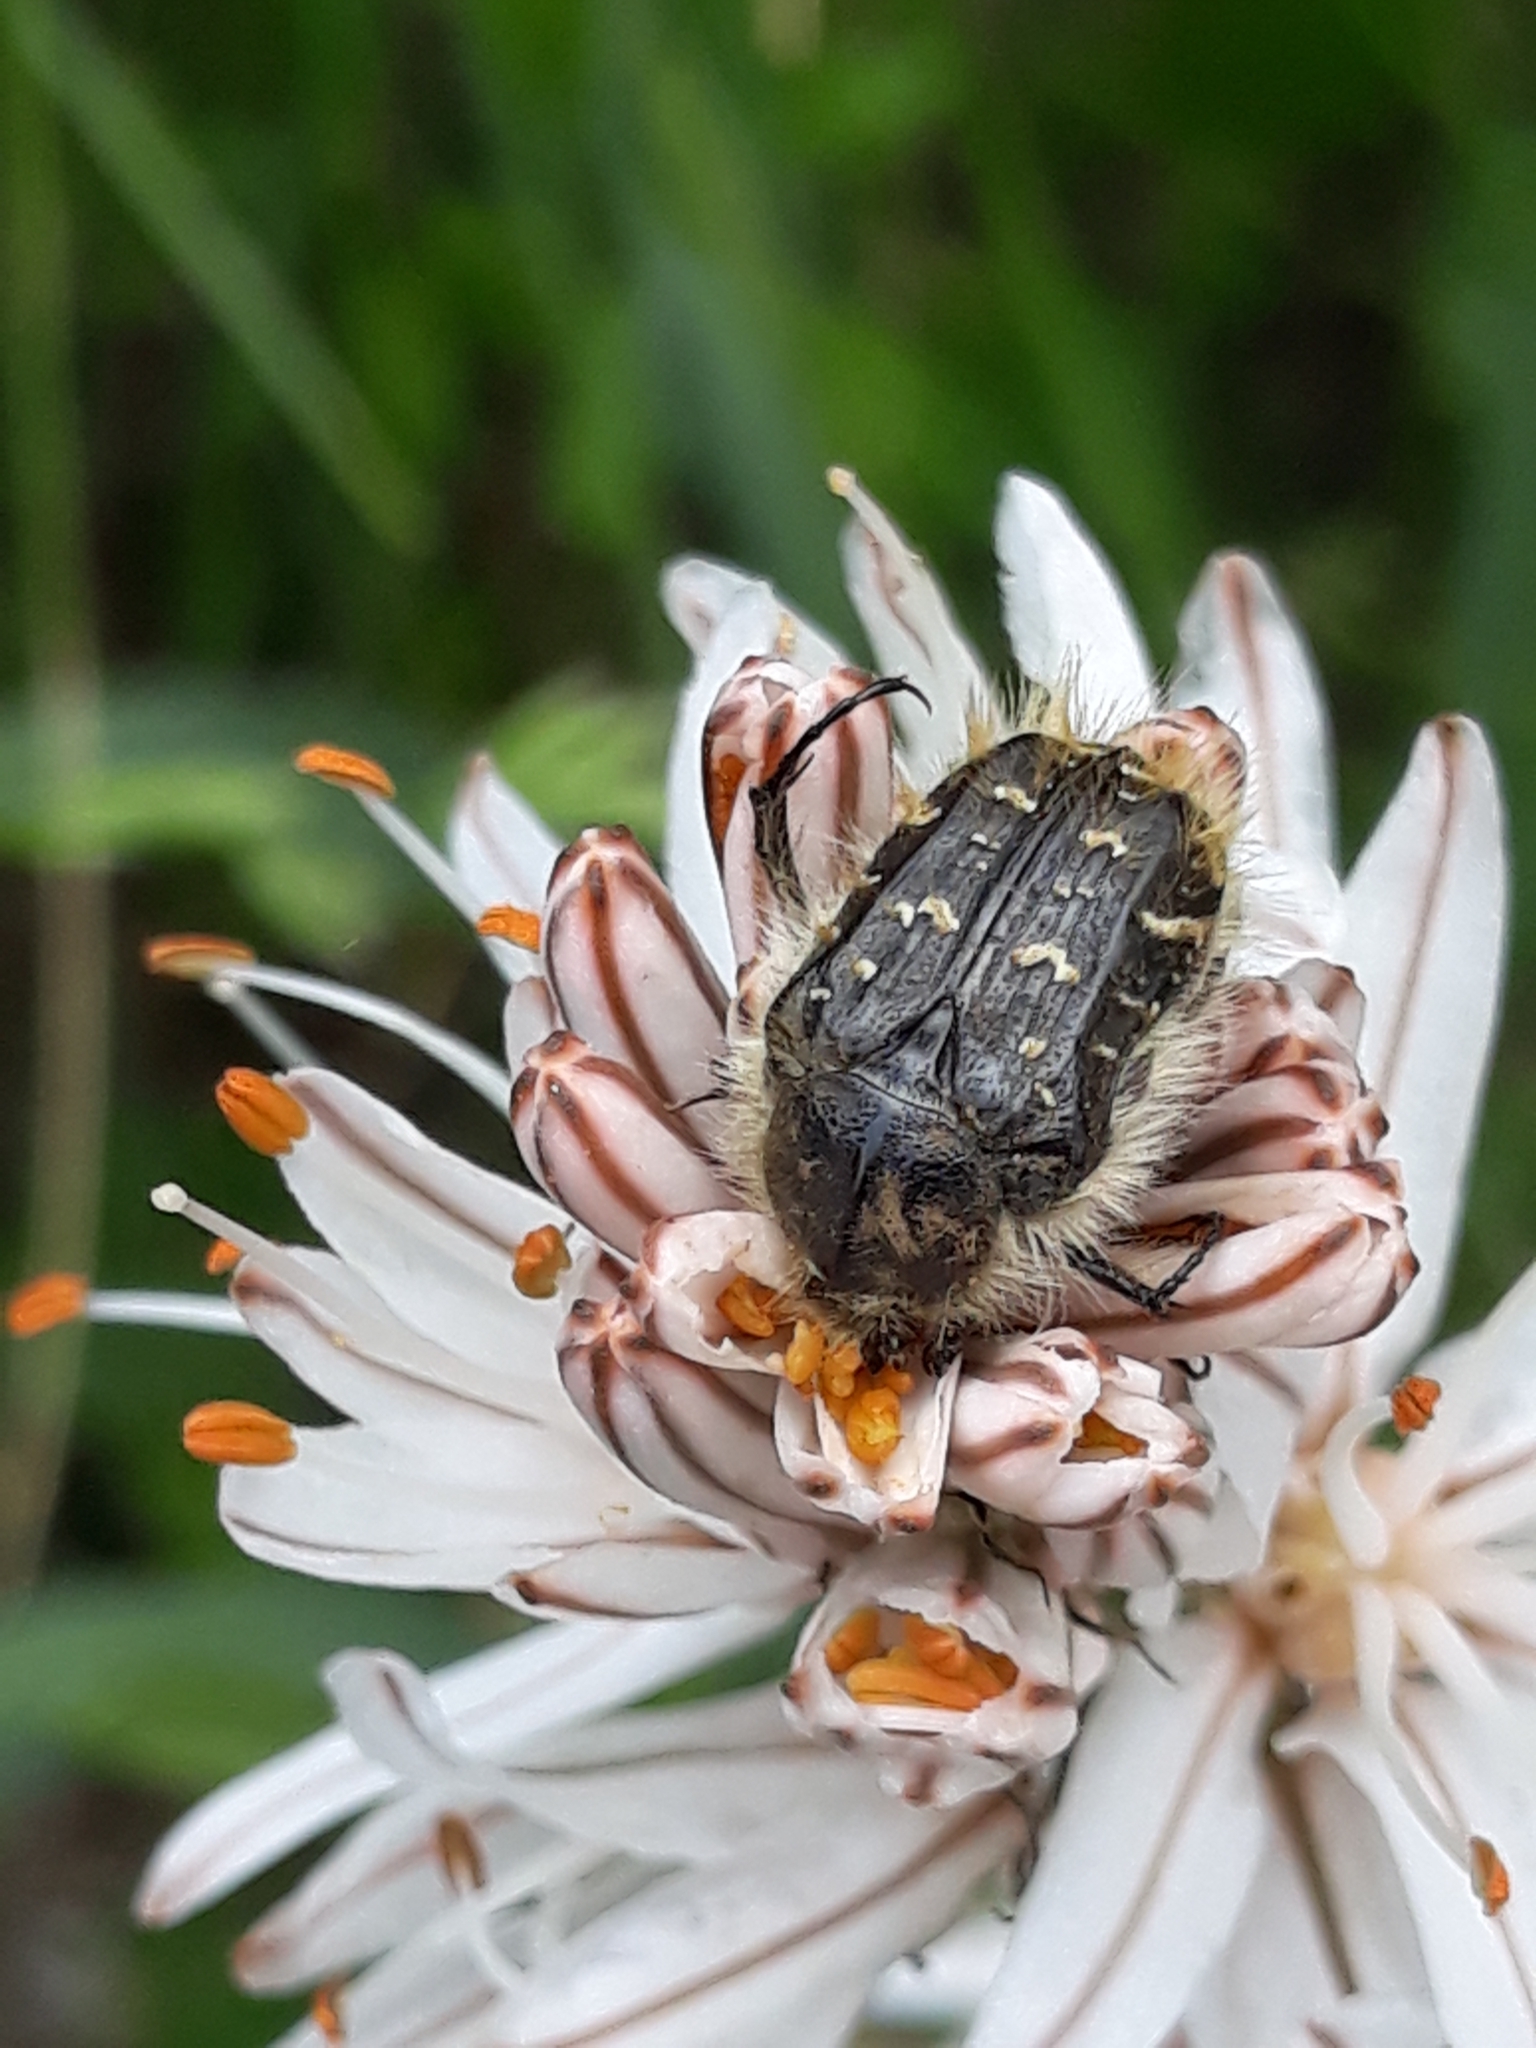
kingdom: Animalia
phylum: Arthropoda
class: Insecta
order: Coleoptera
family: Scarabaeidae
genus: Tropinota
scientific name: Tropinota squalida
